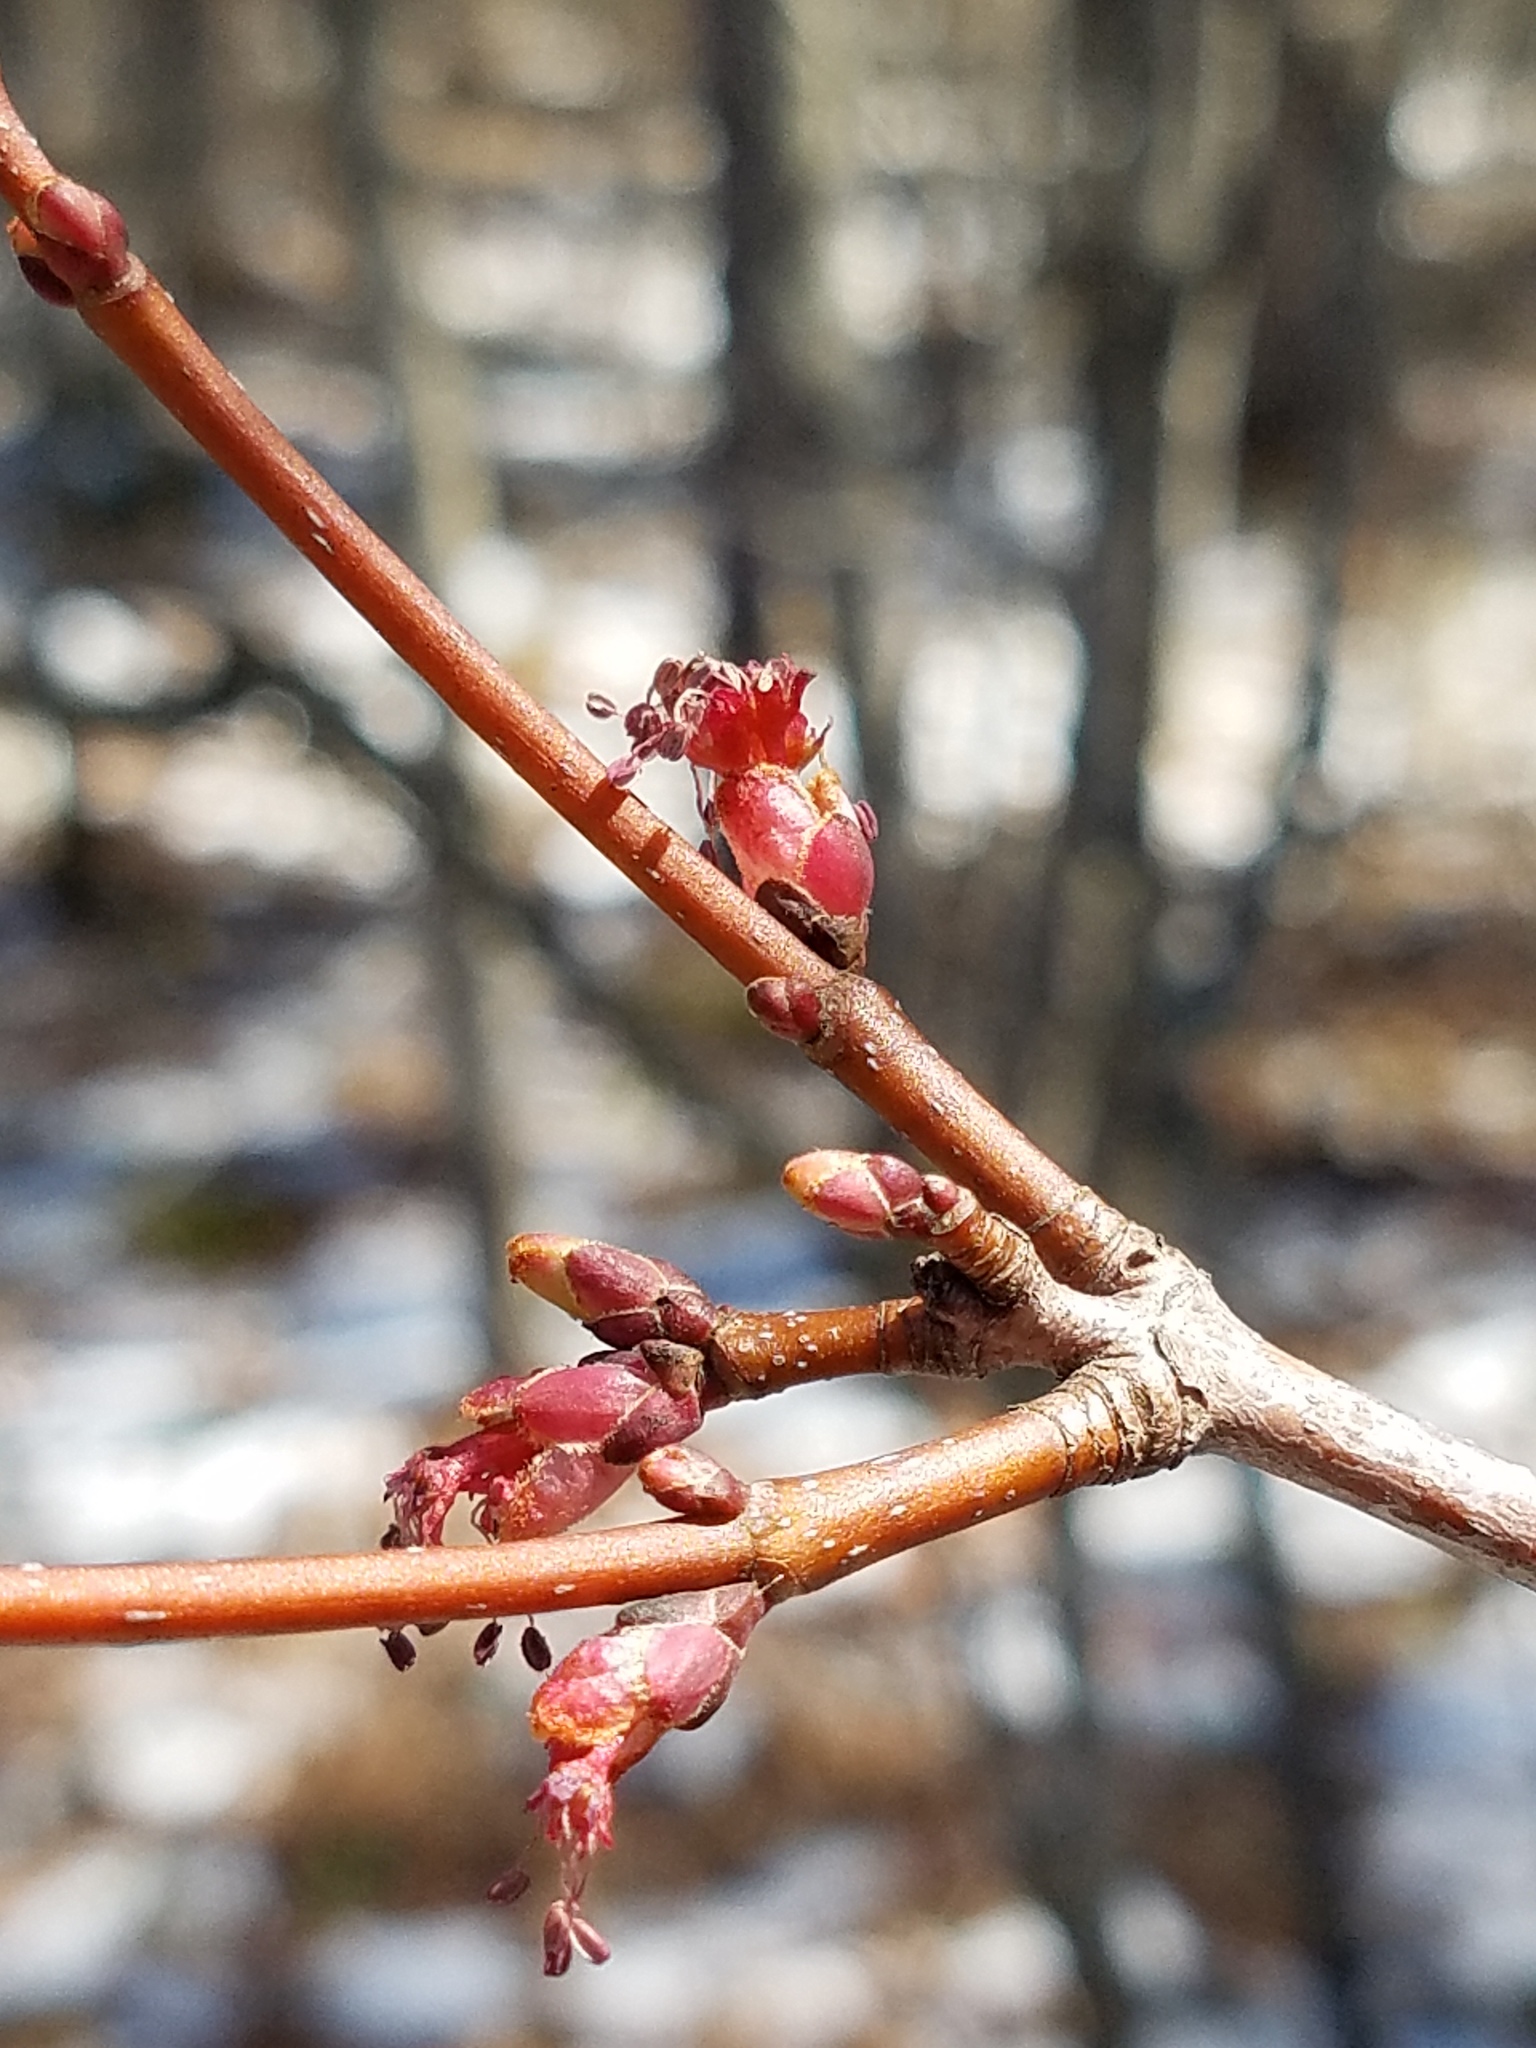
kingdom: Plantae
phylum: Tracheophyta
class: Magnoliopsida
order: Sapindales
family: Sapindaceae
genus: Acer
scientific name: Acer rubrum
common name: Red maple
